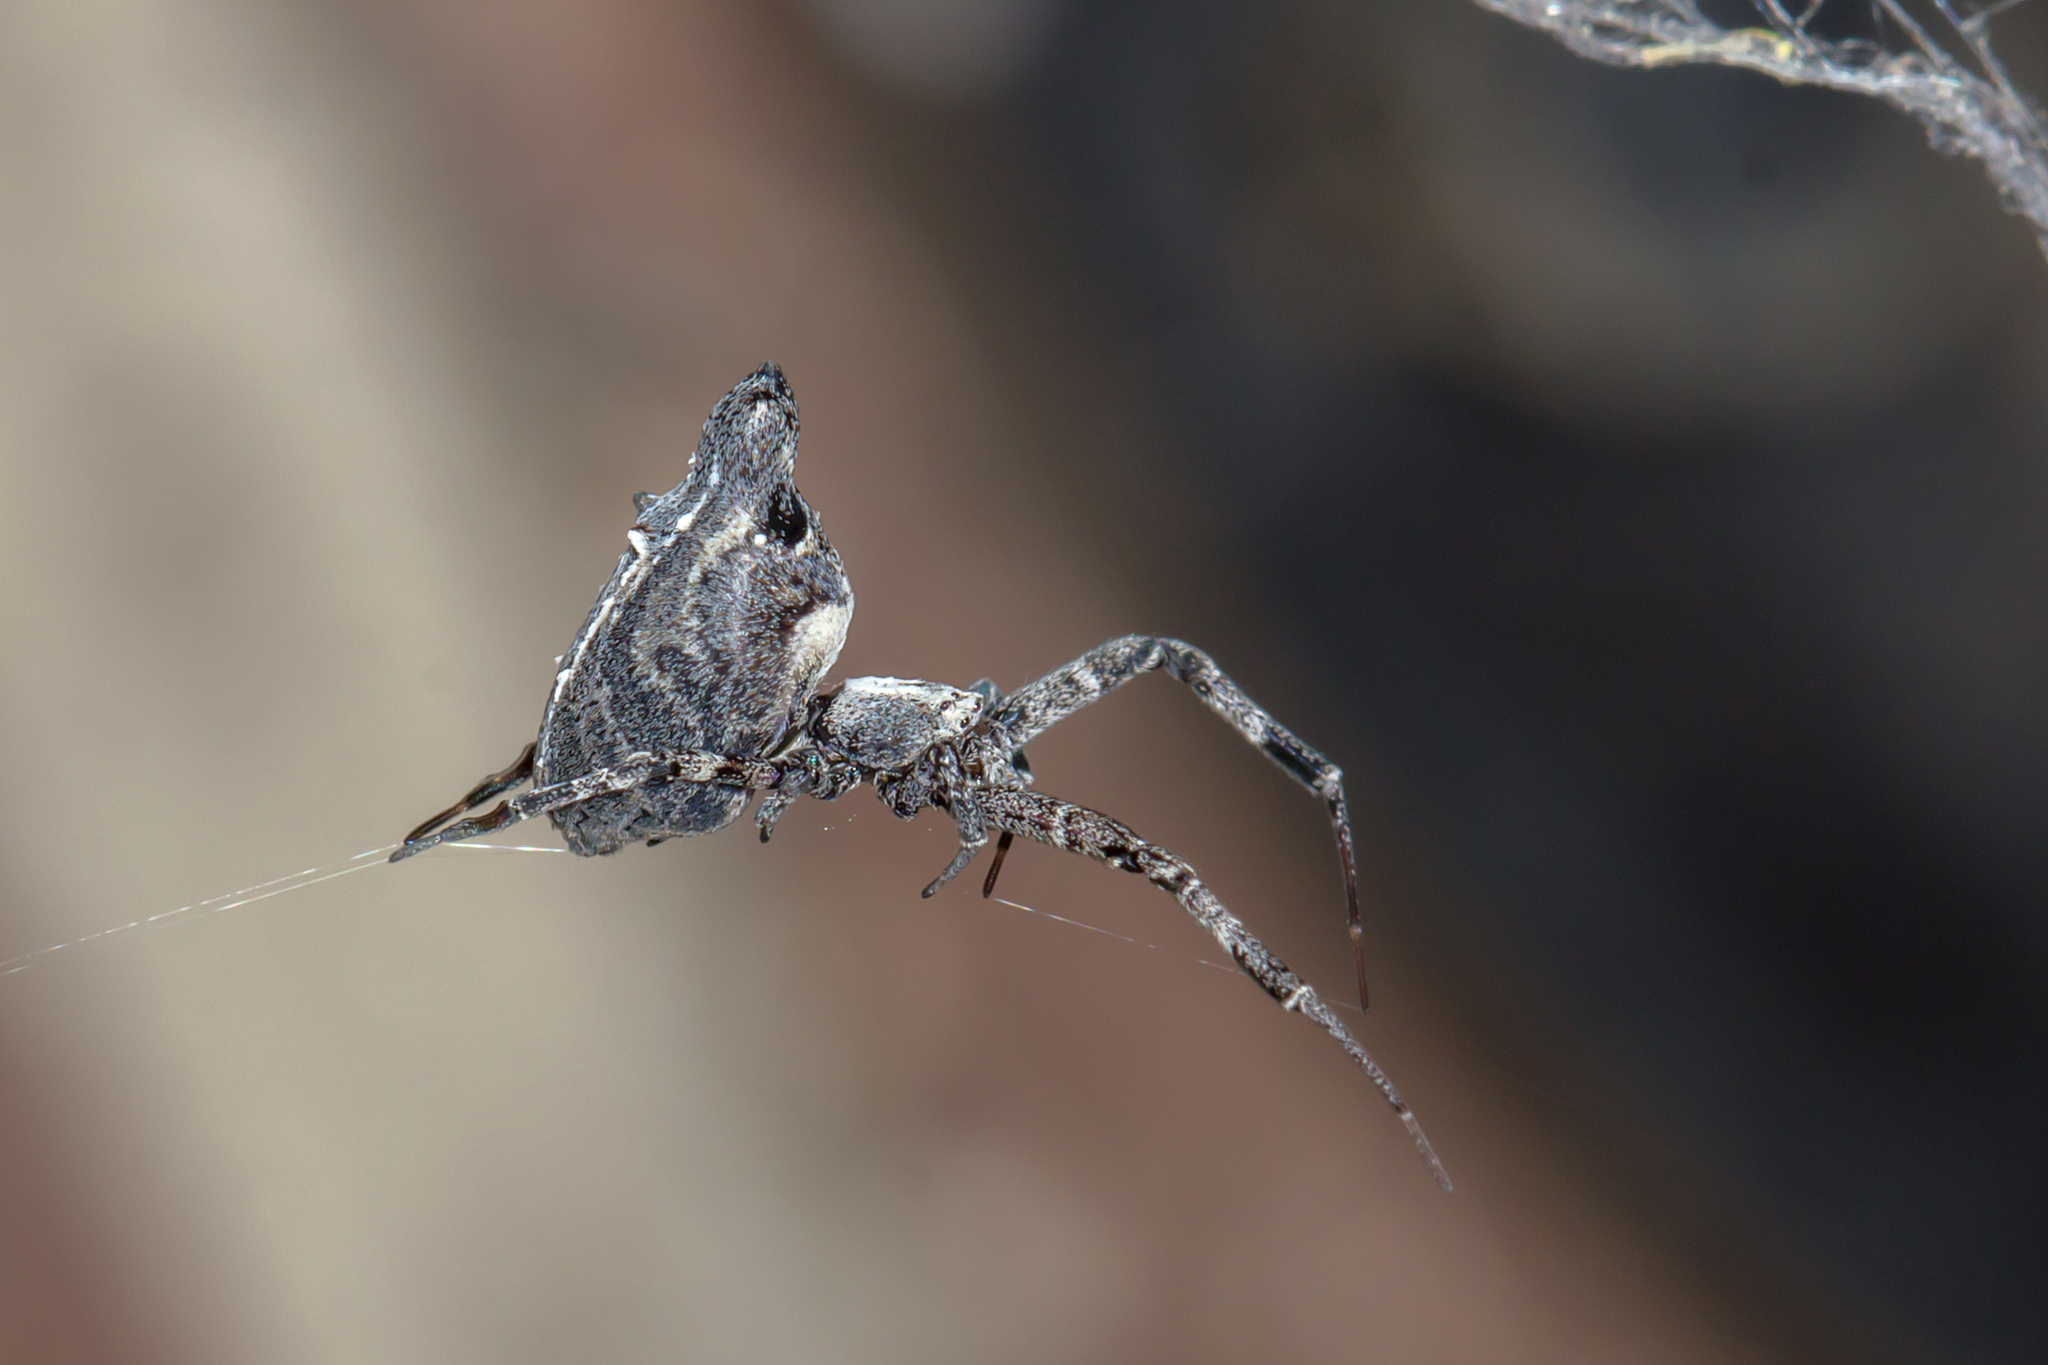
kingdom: Animalia
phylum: Arthropoda
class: Arachnida
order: Araneae
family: Uloboridae
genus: Philoponella
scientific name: Philoponella congregabilis
